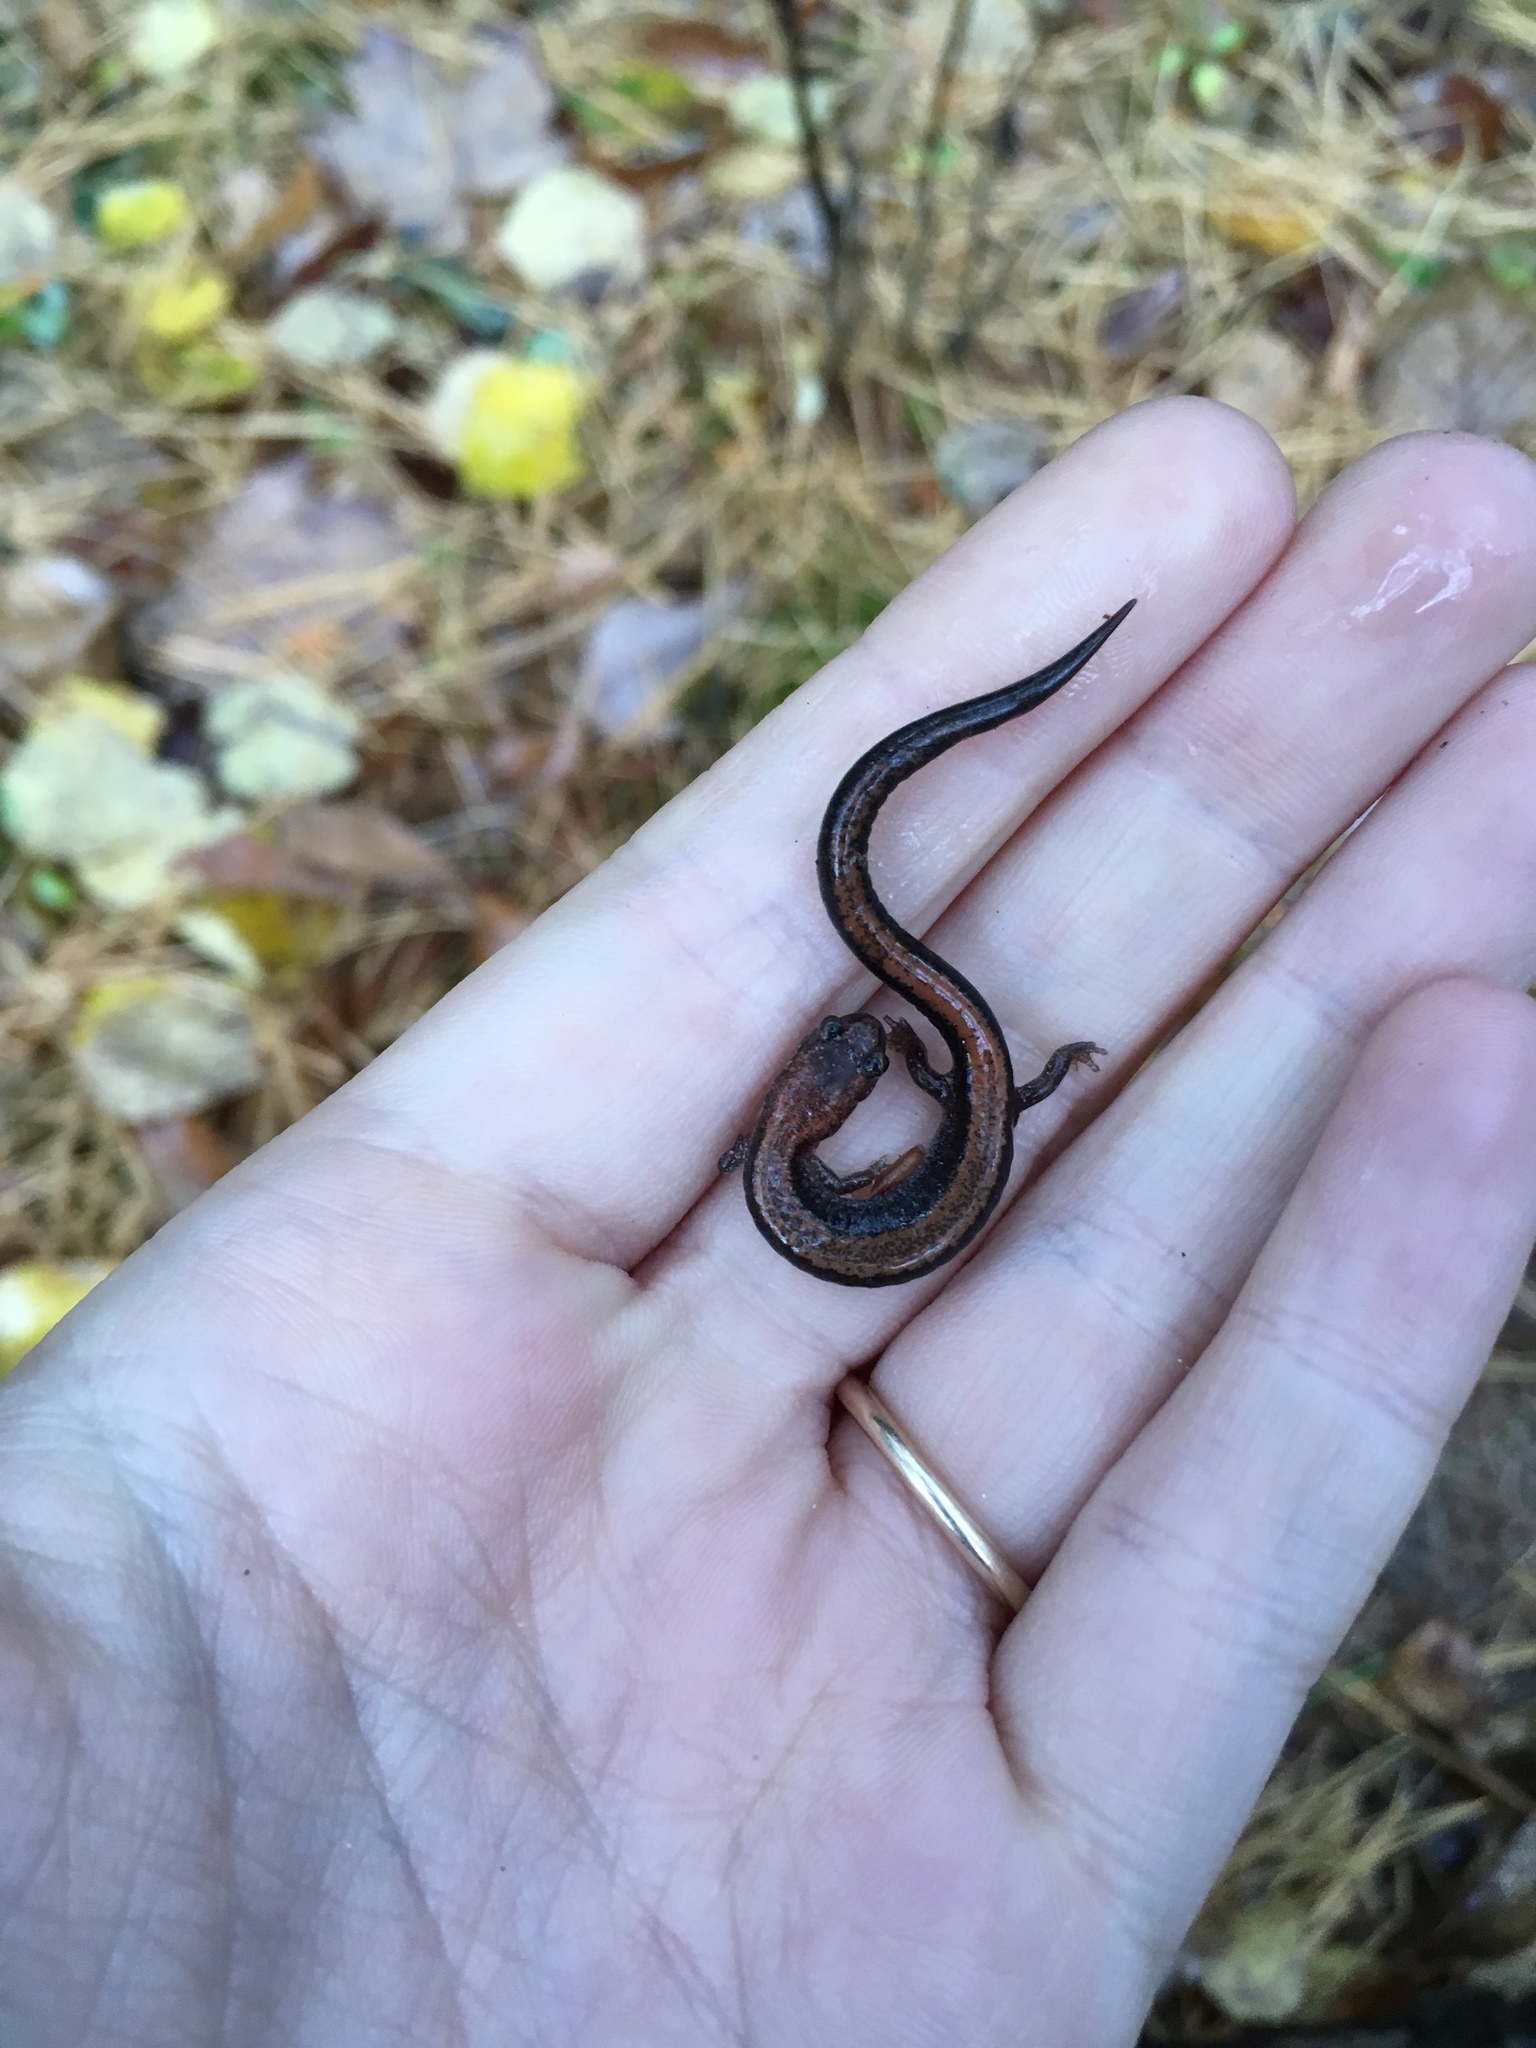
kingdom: Animalia
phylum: Chordata
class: Amphibia
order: Caudata
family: Plethodontidae
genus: Plethodon
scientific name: Plethodon cinereus
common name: Redback salamander
